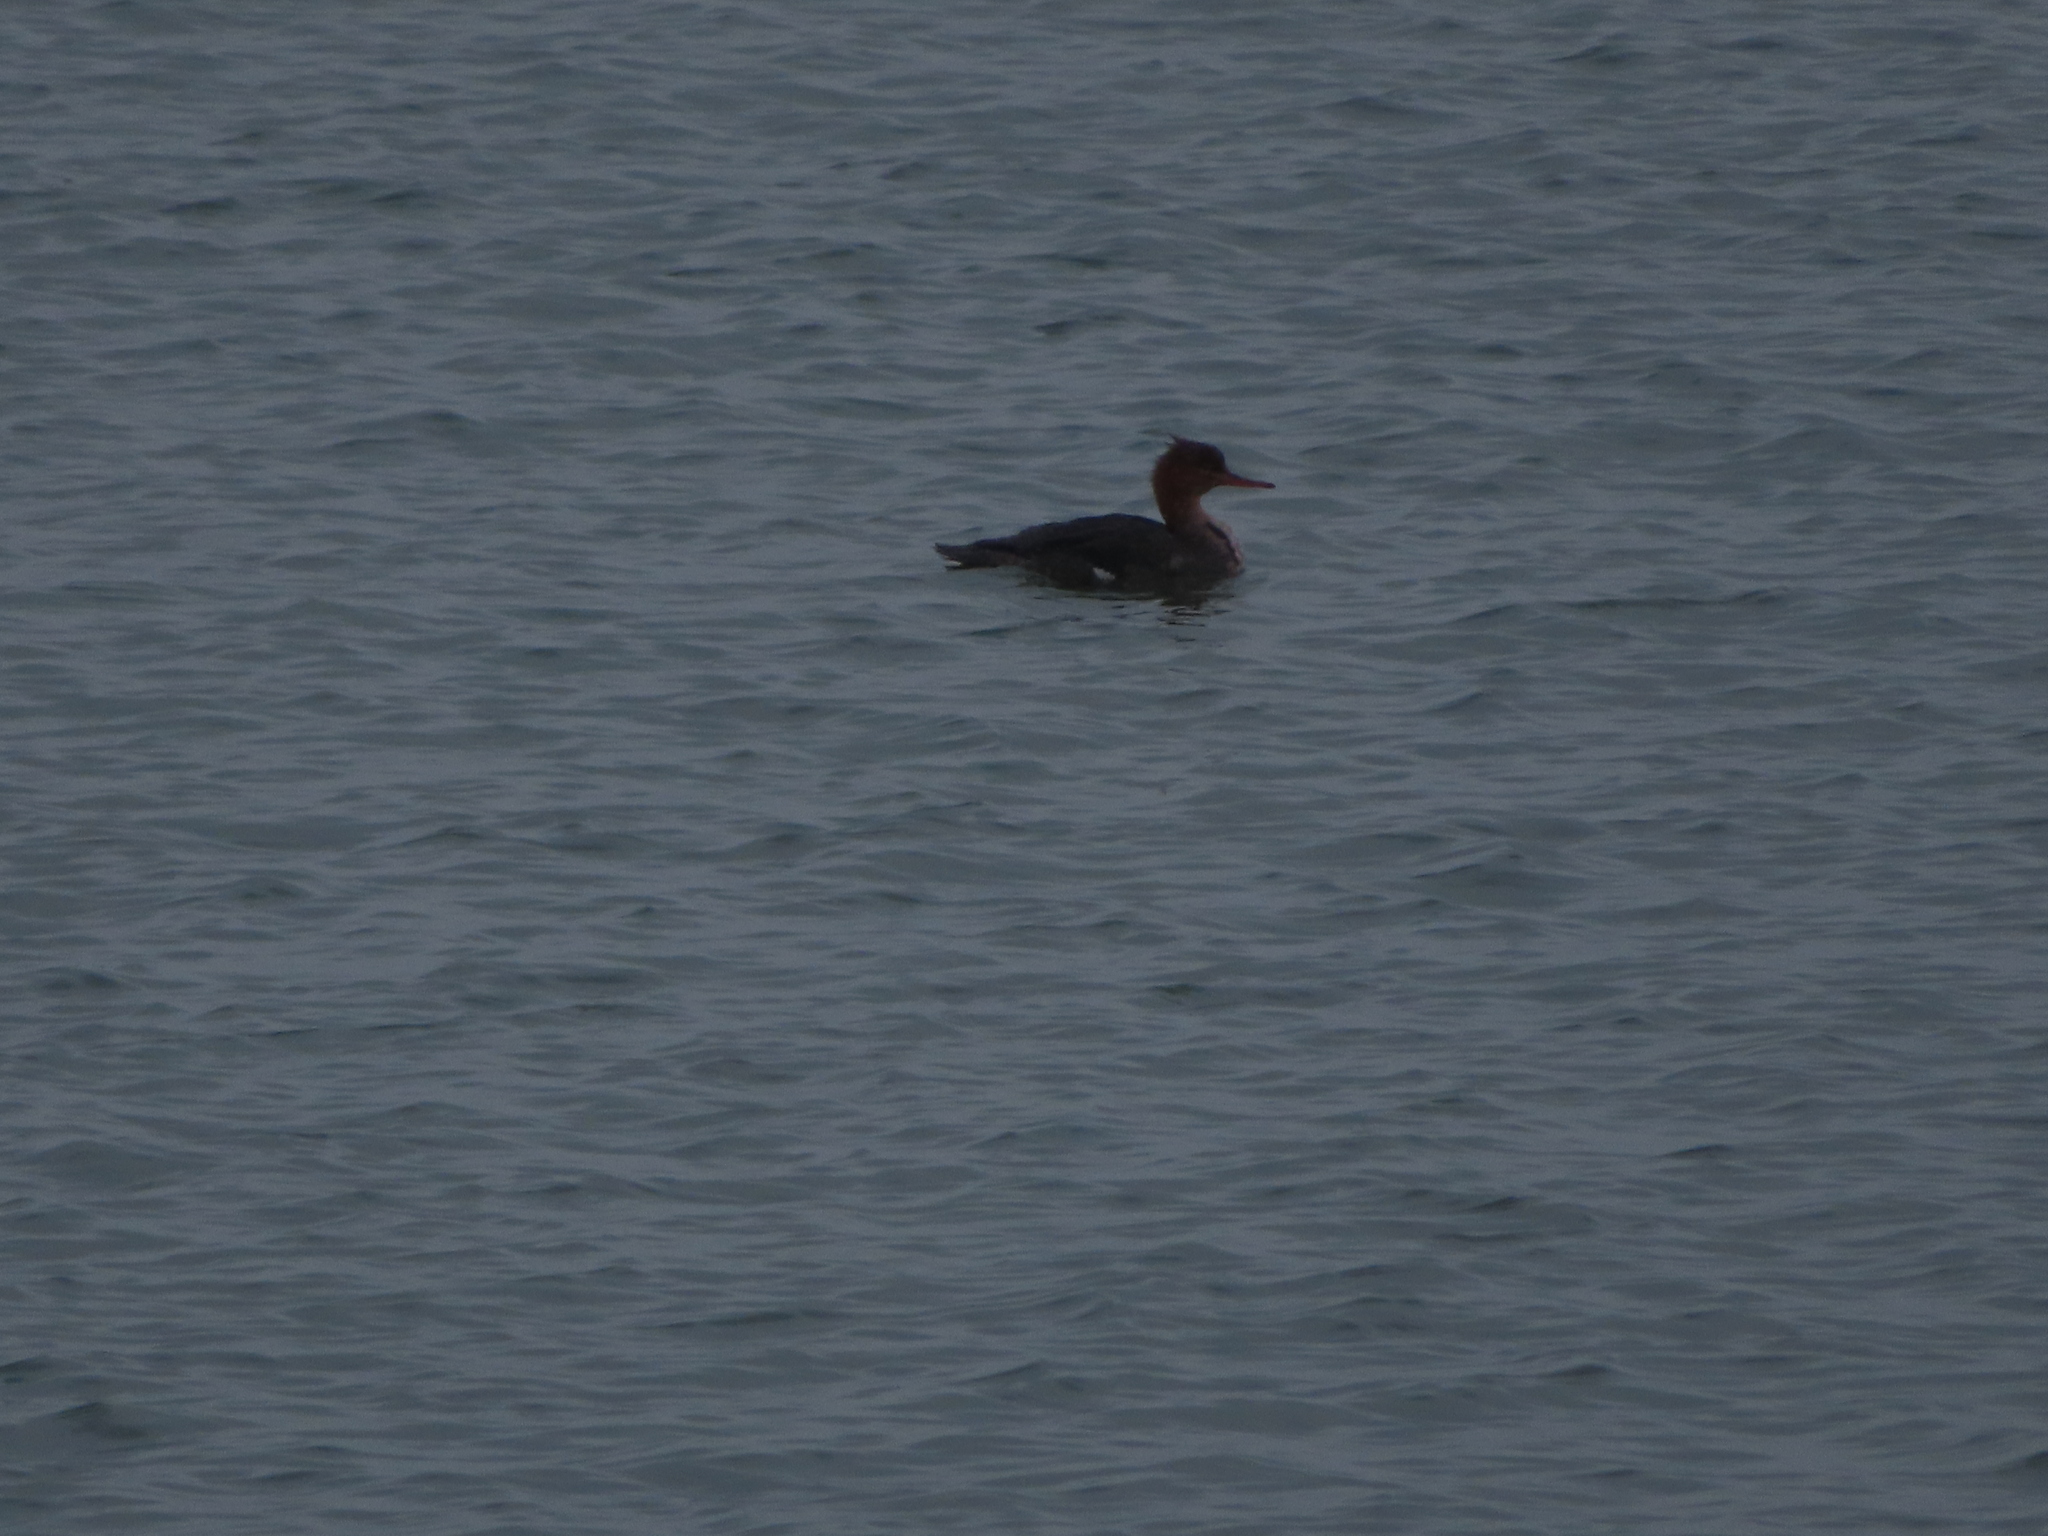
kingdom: Animalia
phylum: Chordata
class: Aves
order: Anseriformes
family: Anatidae
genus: Mergus
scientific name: Mergus serrator
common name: Red-breasted merganser
